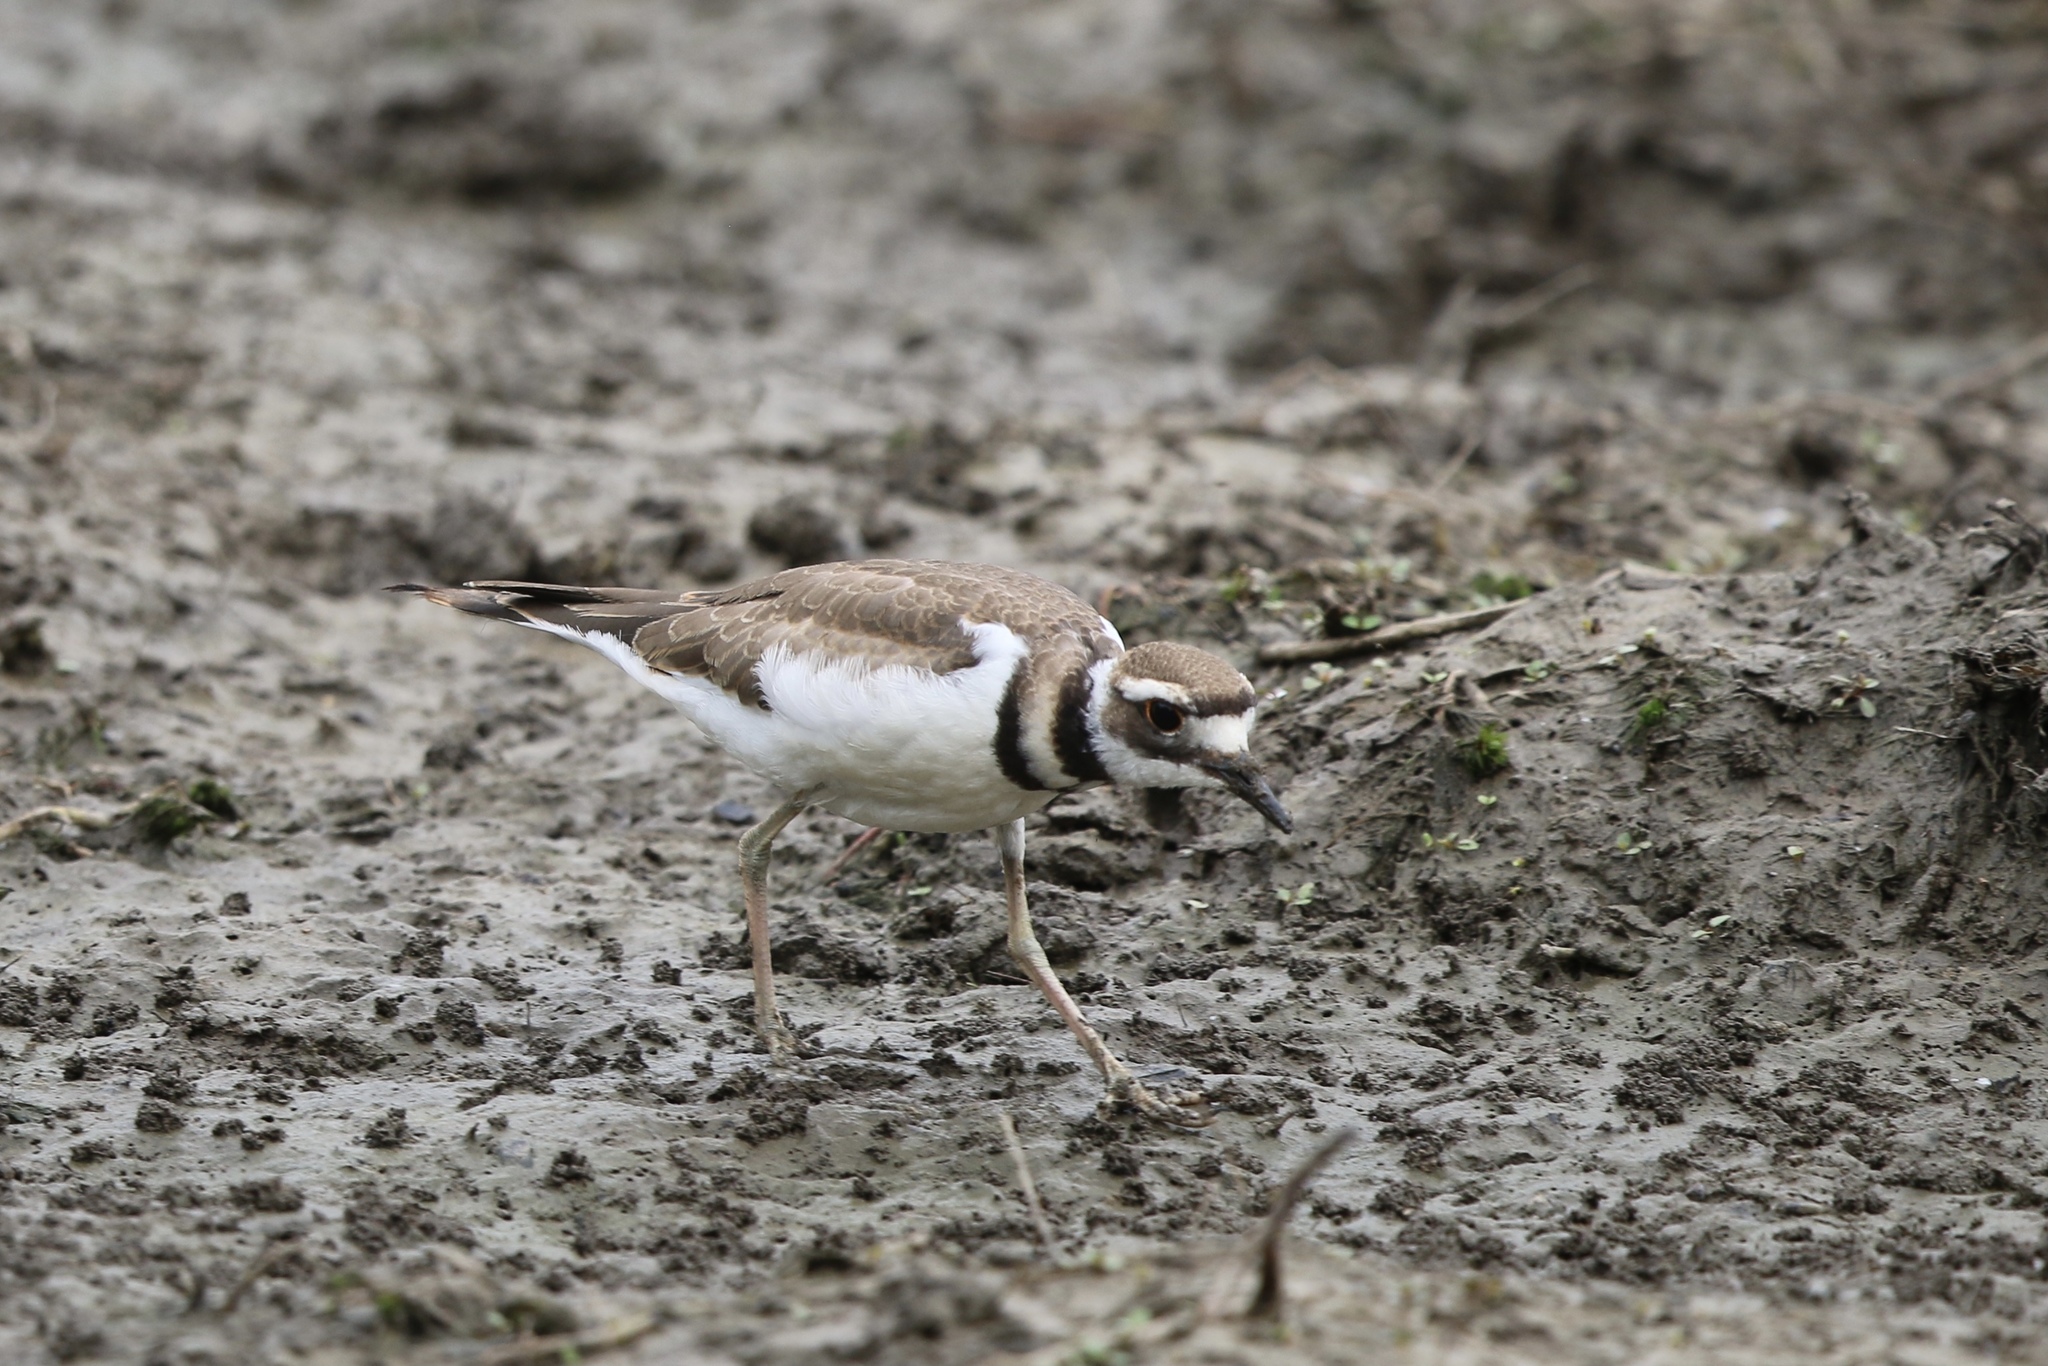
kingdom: Animalia
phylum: Chordata
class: Aves
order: Charadriiformes
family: Charadriidae
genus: Charadrius
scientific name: Charadrius vociferus
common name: Killdeer
